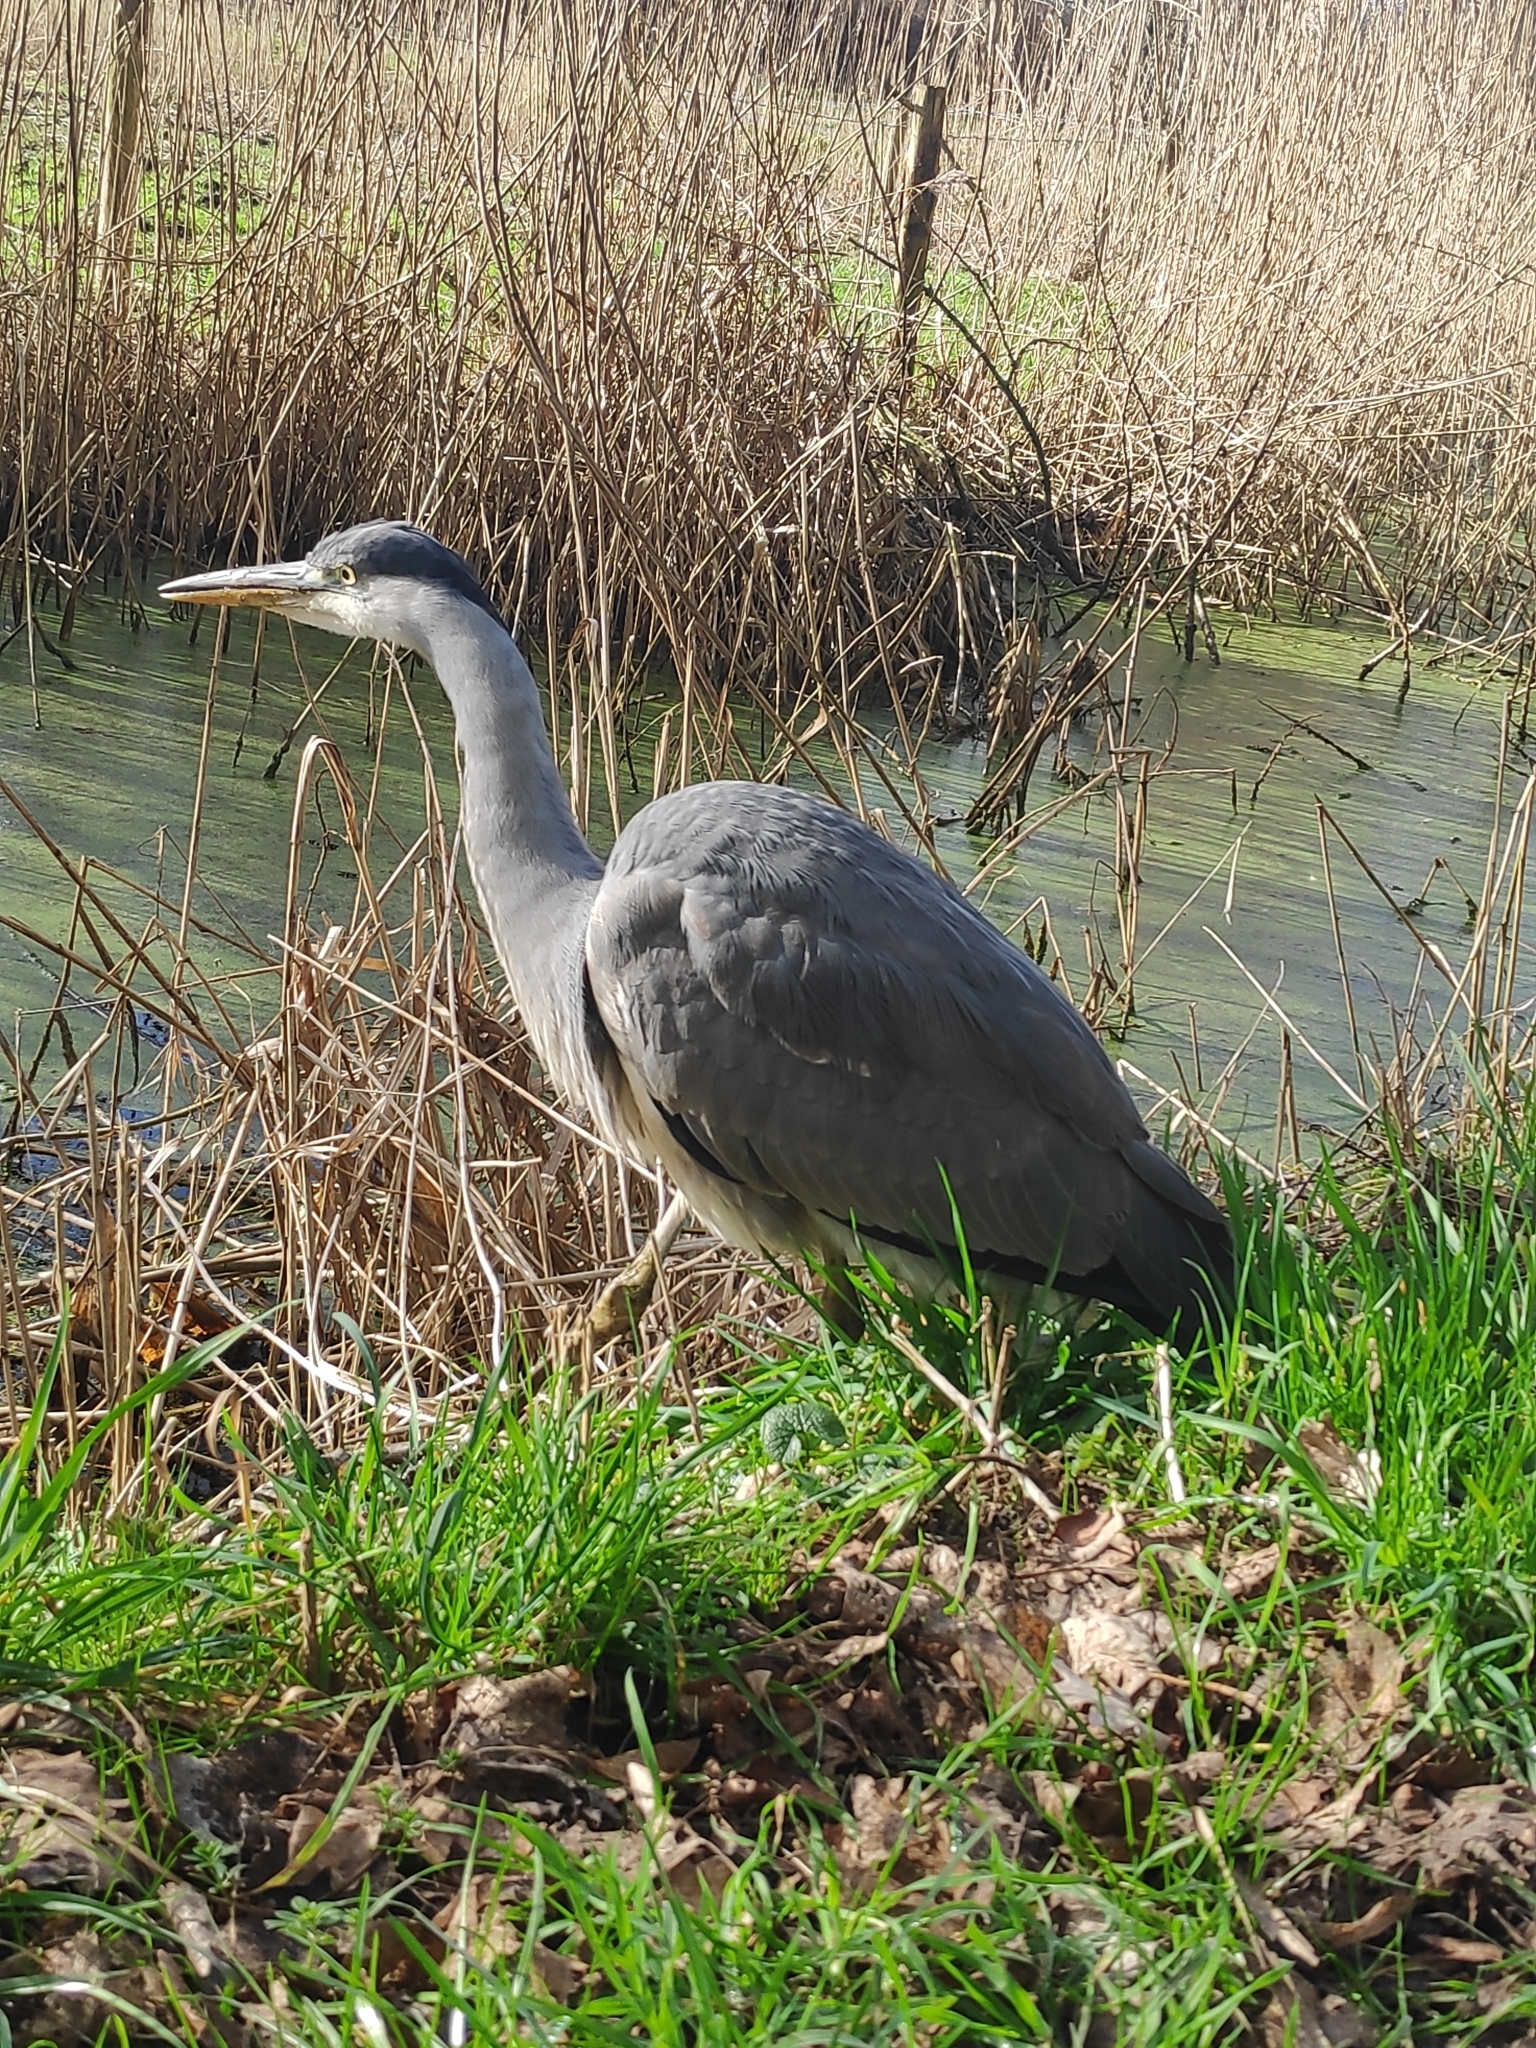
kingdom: Animalia
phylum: Chordata
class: Aves
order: Pelecaniformes
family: Ardeidae
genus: Ardea
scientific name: Ardea cinerea
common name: Grey heron
